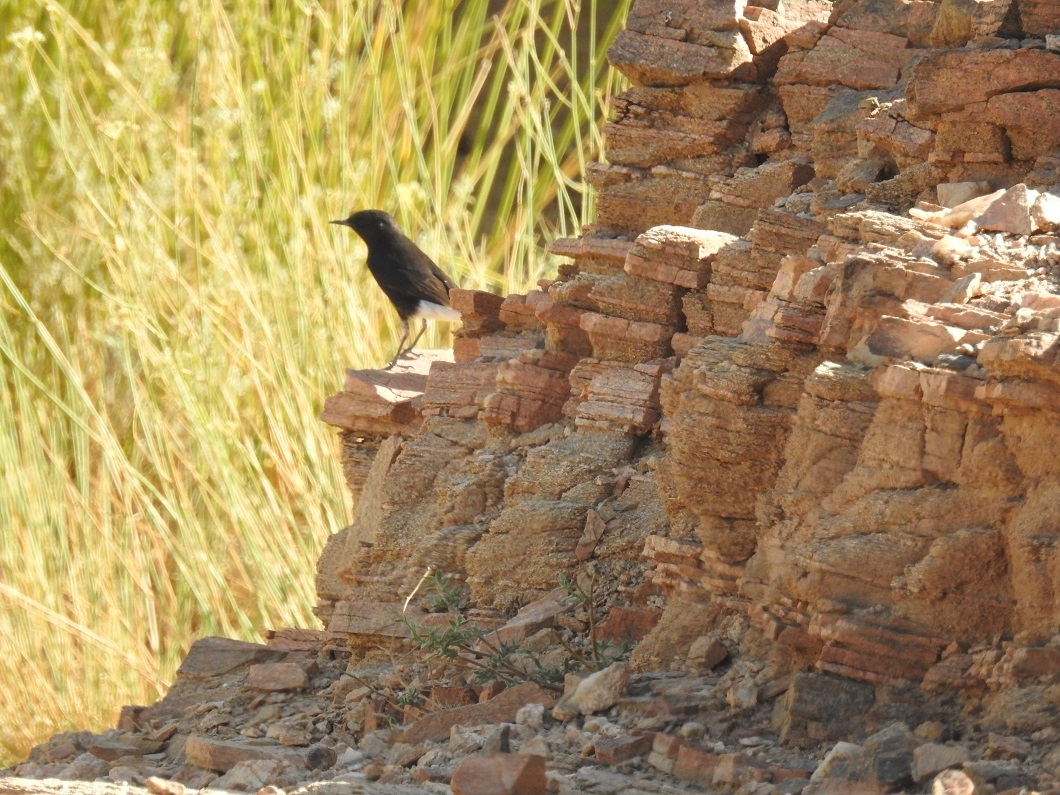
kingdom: Animalia
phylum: Chordata
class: Aves
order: Passeriformes
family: Muscicapidae
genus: Oenanthe
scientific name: Oenanthe leucopyga
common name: White-crowned wheatear
